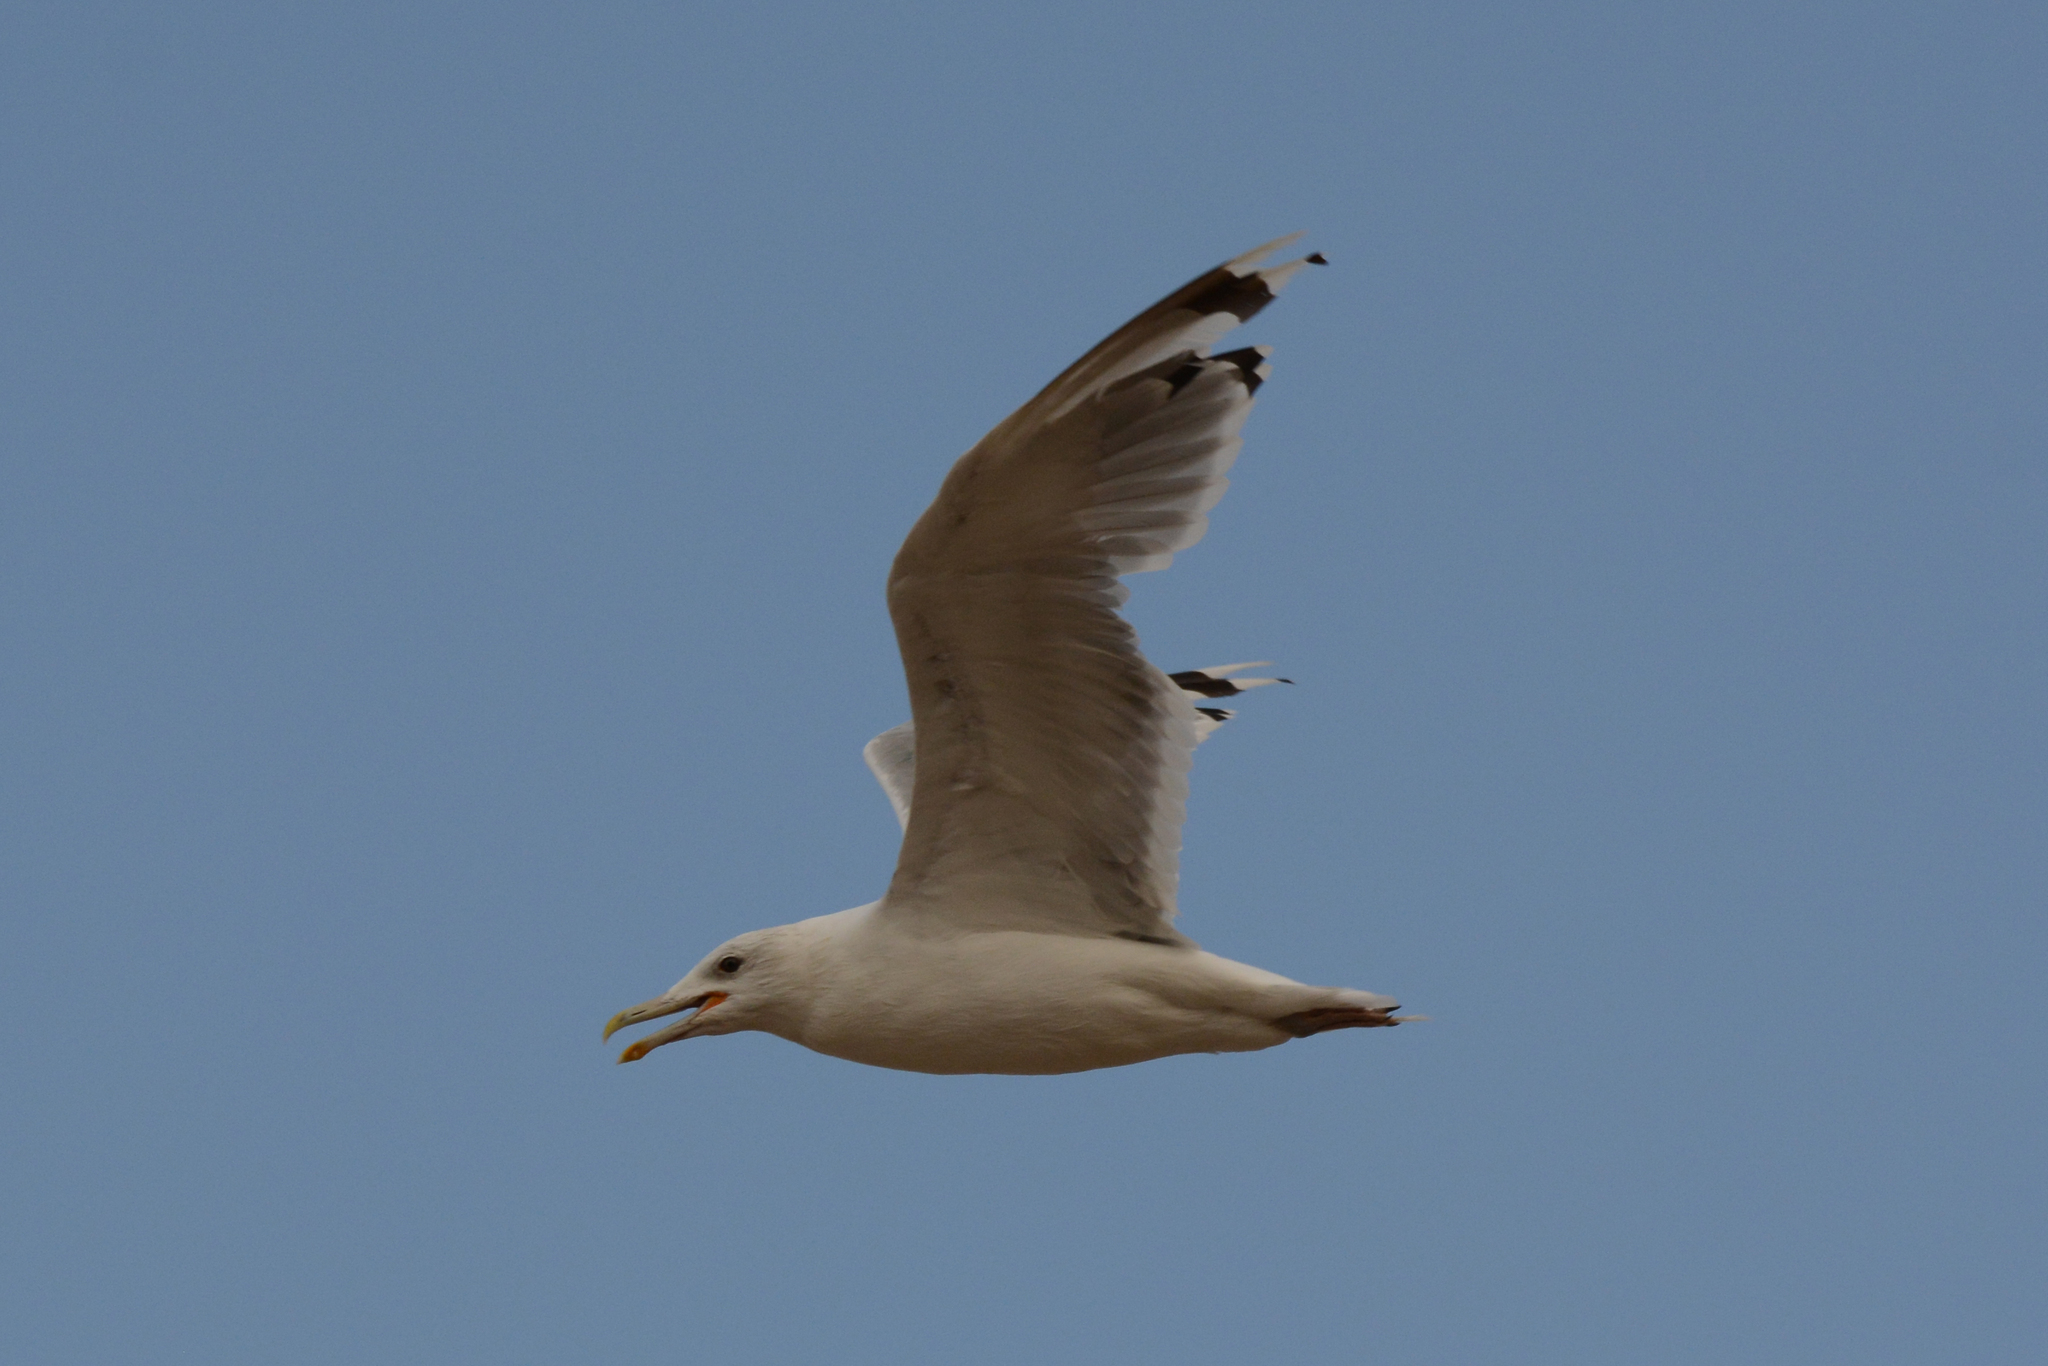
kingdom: Animalia
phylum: Chordata
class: Aves
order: Charadriiformes
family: Laridae
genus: Larus
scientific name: Larus cachinnans
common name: Caspian gull
